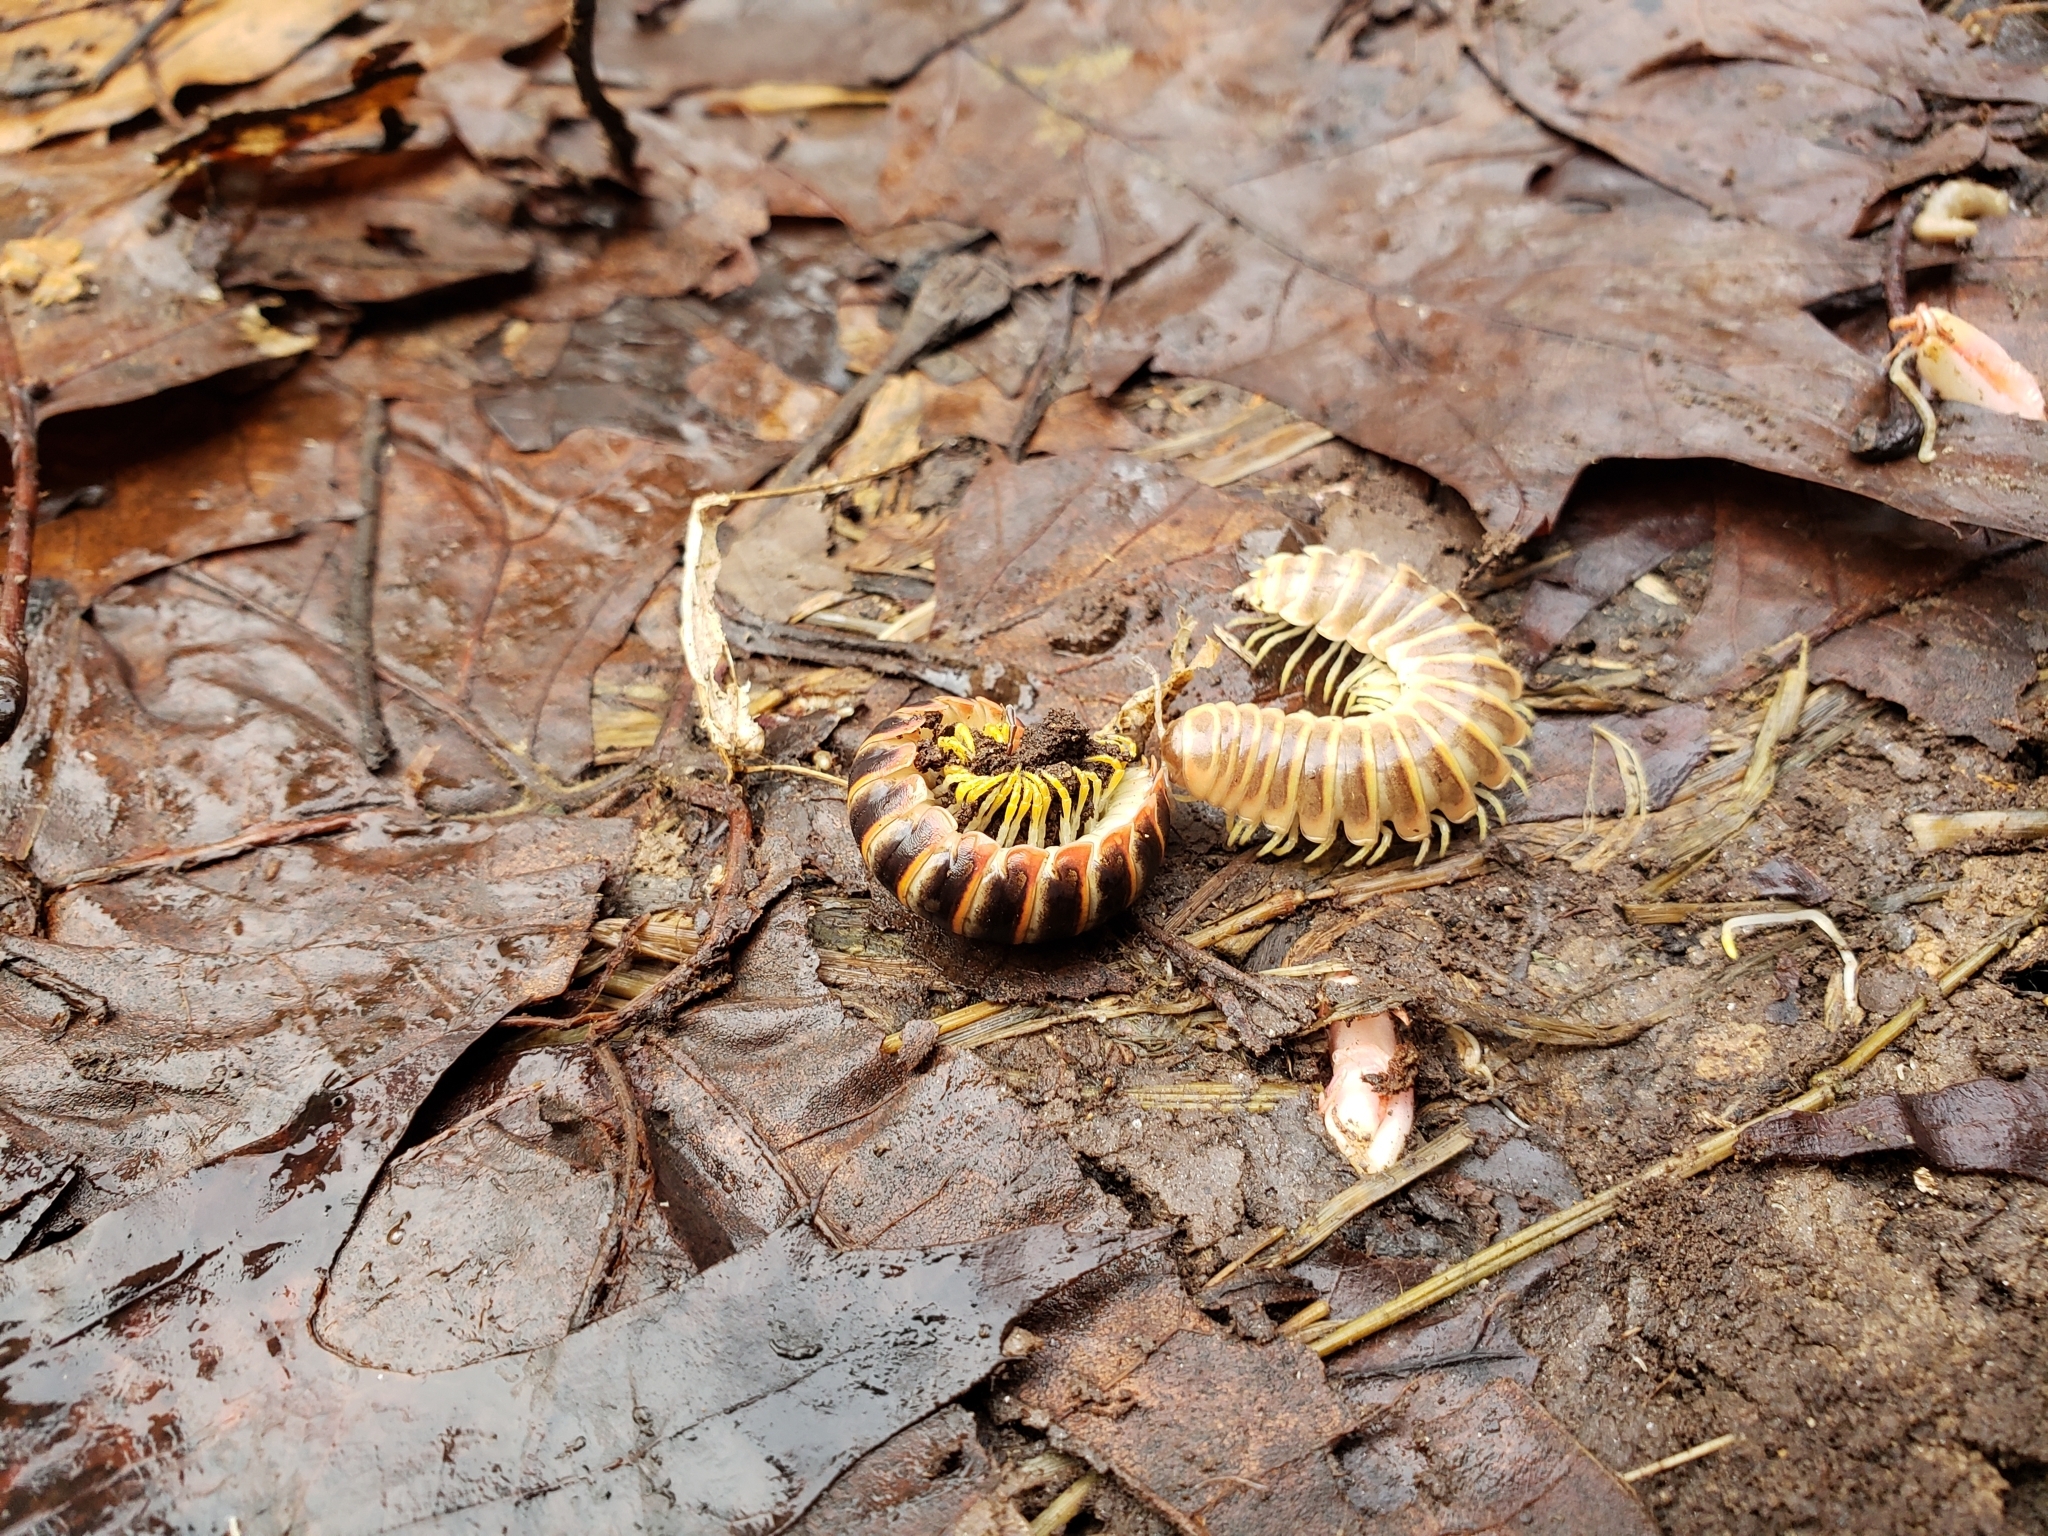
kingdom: Animalia
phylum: Arthropoda
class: Diplopoda
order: Polydesmida
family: Xystodesmidae
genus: Apheloria
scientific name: Apheloria virginiensis
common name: Black-and-gold flat millipede
